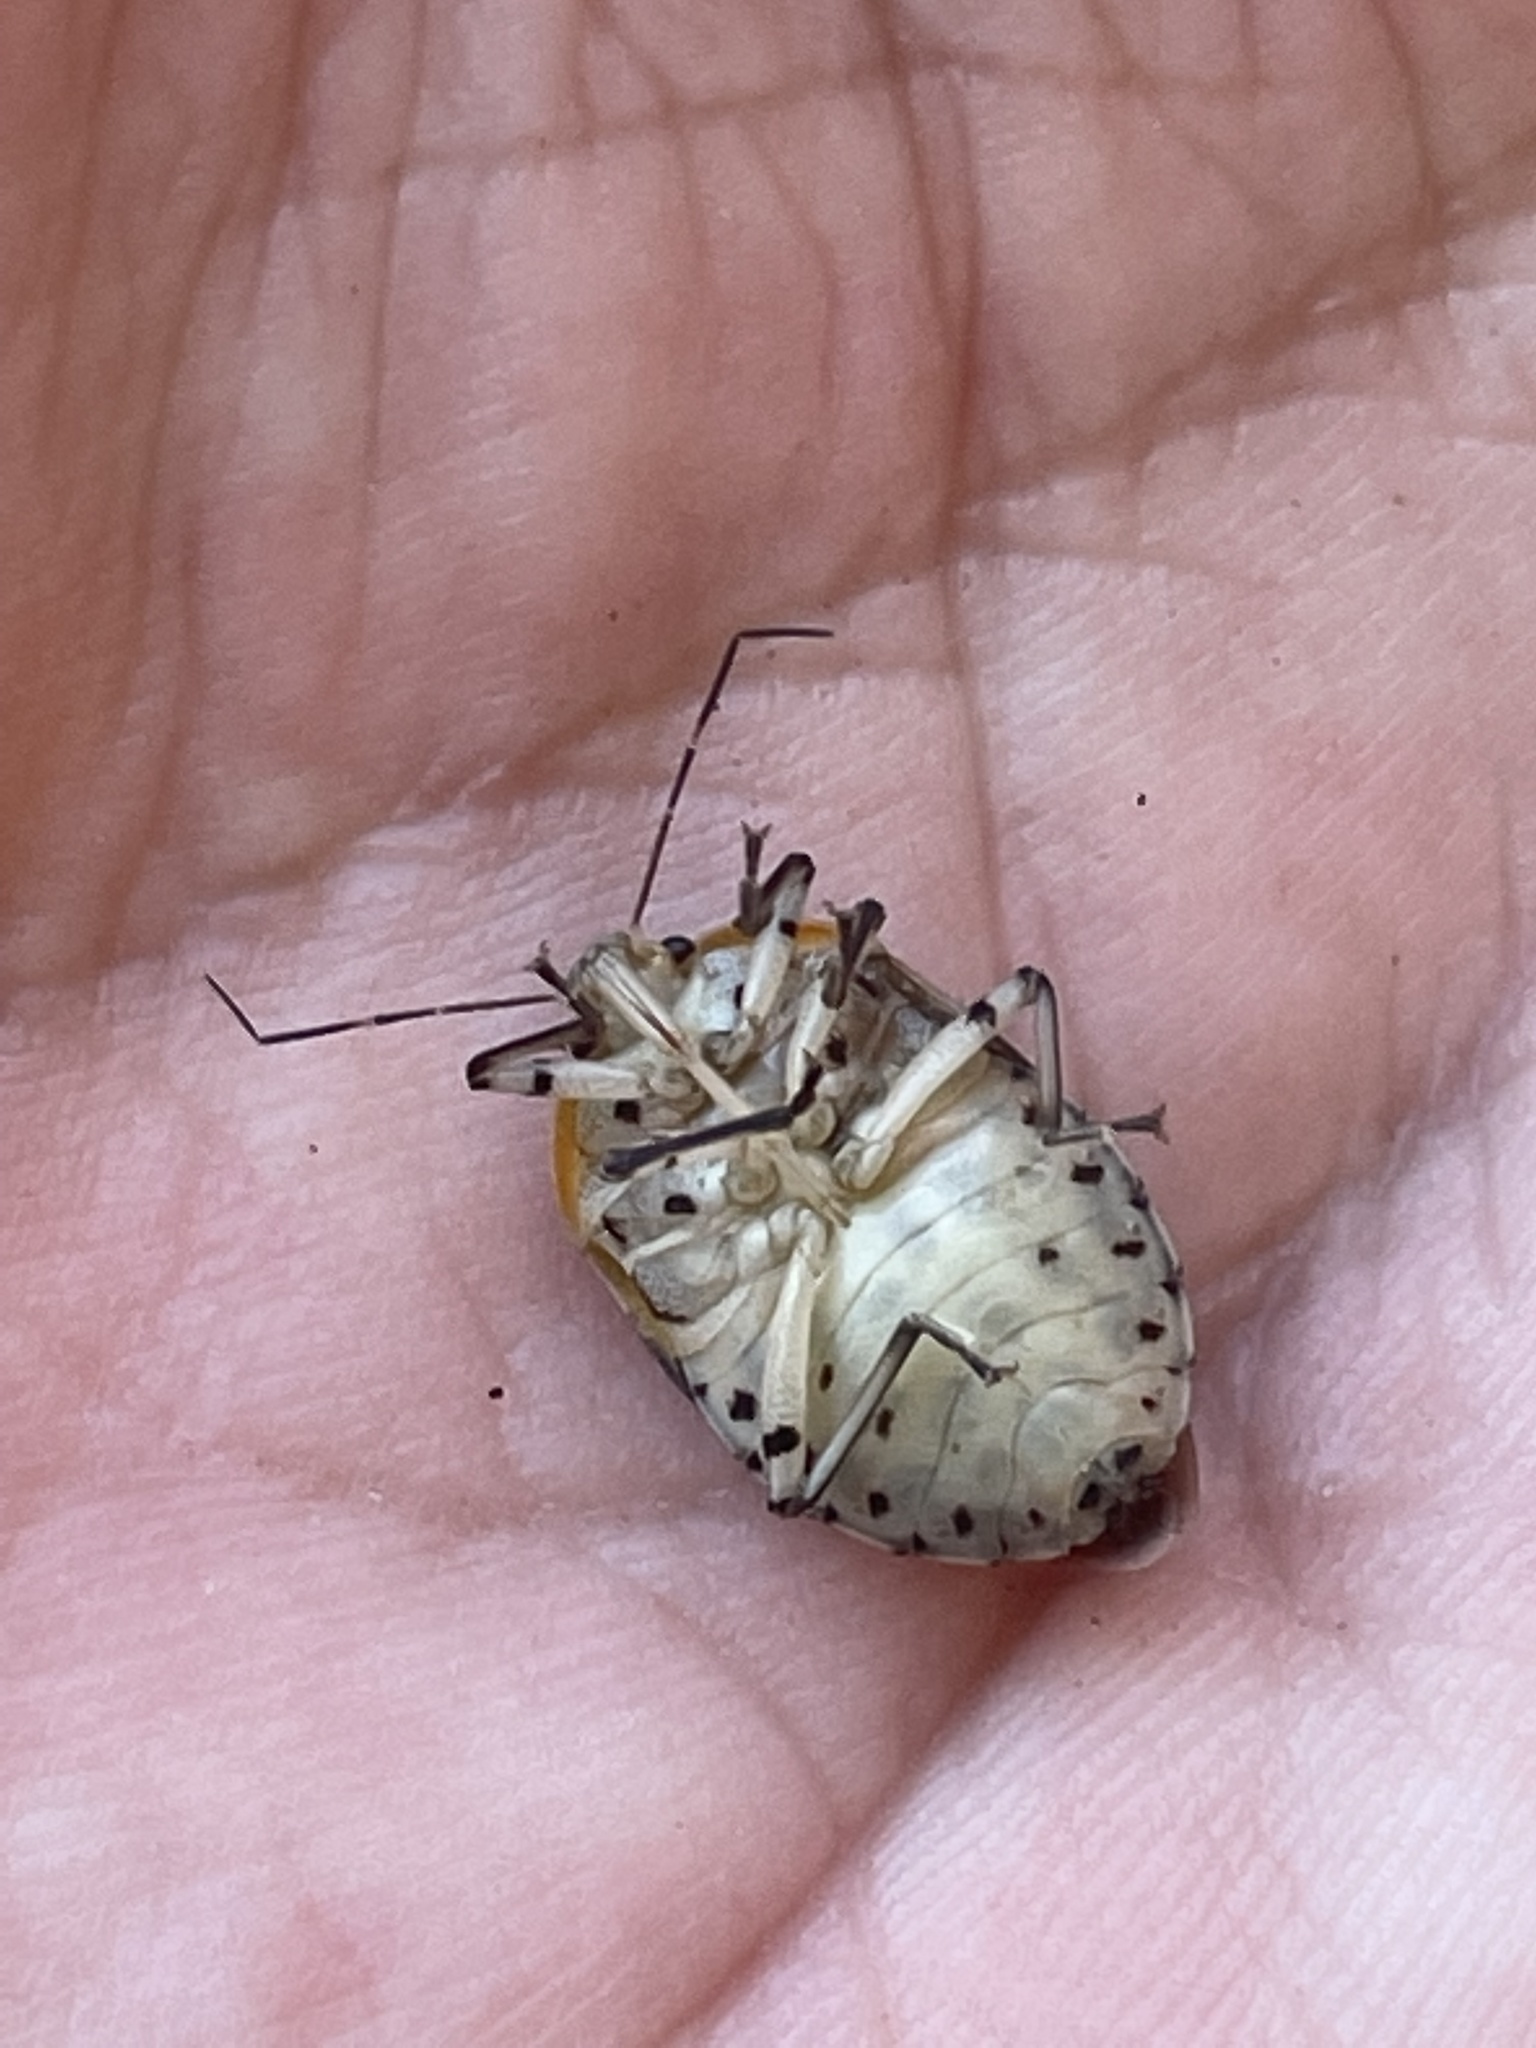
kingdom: Animalia
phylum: Arthropoda
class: Insecta
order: Hemiptera
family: Pentatomidae
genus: Amyotea
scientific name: Amyotea
